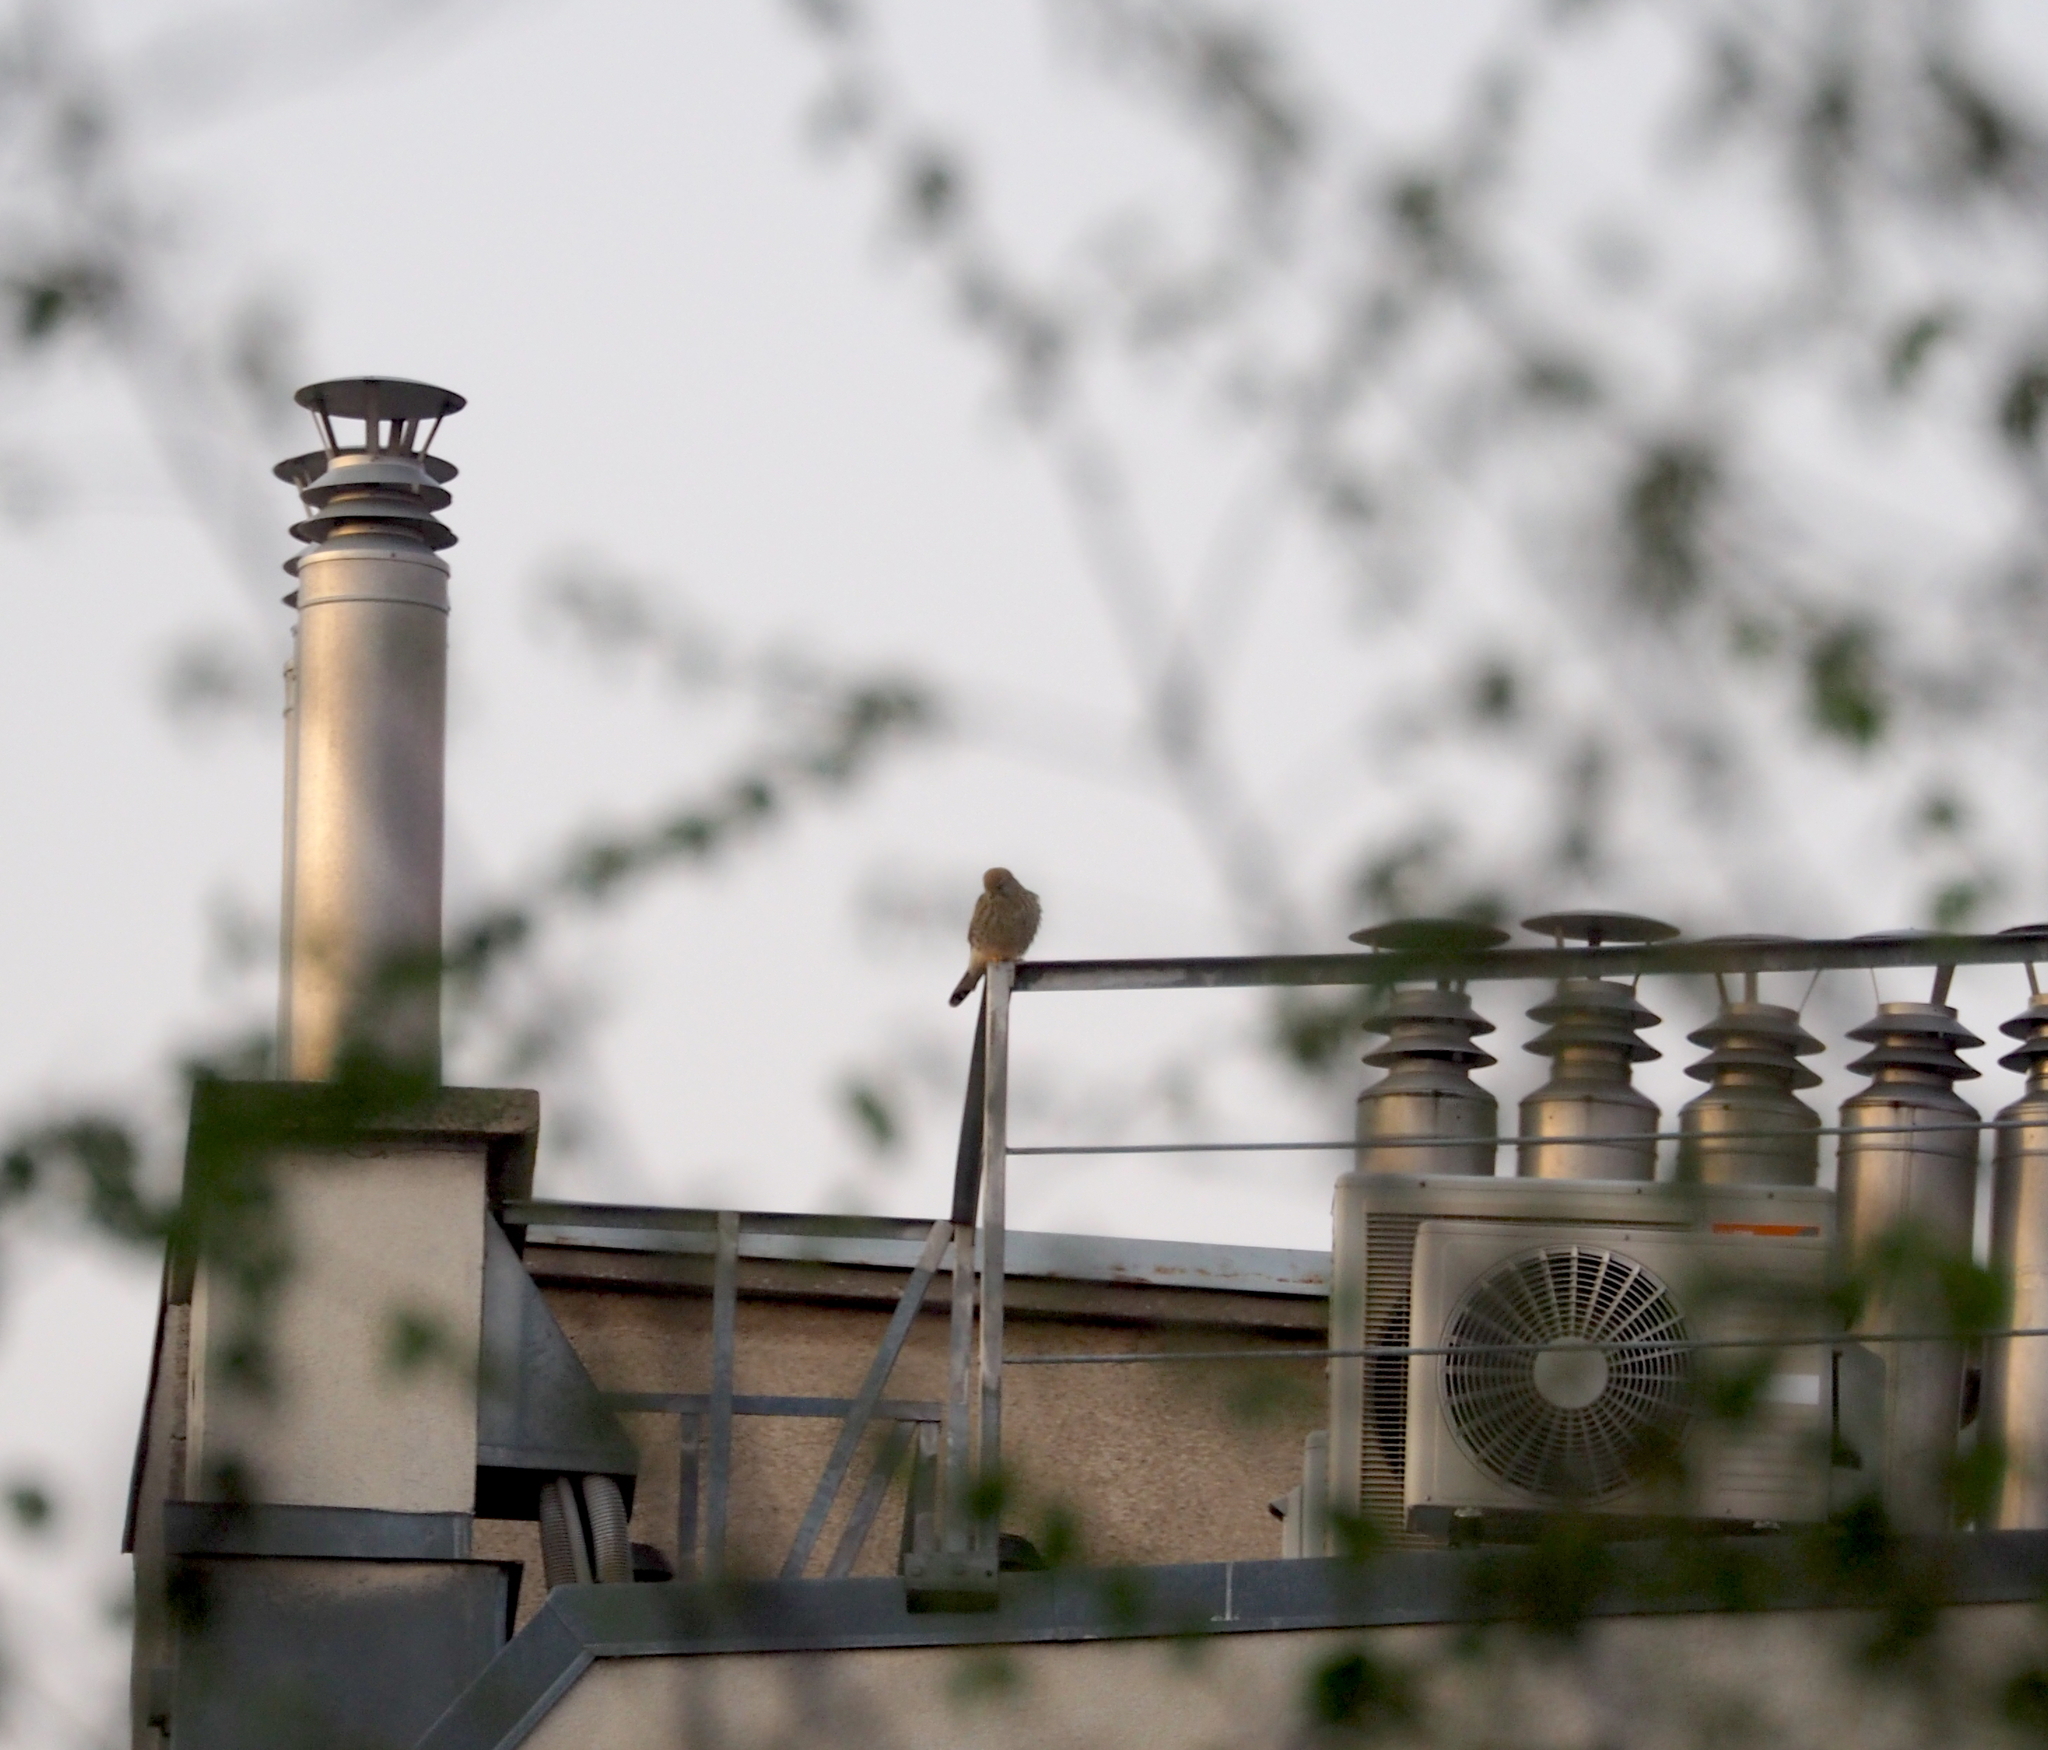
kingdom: Animalia
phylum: Chordata
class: Aves
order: Falconiformes
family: Falconidae
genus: Falco
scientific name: Falco tinnunculus
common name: Common kestrel
